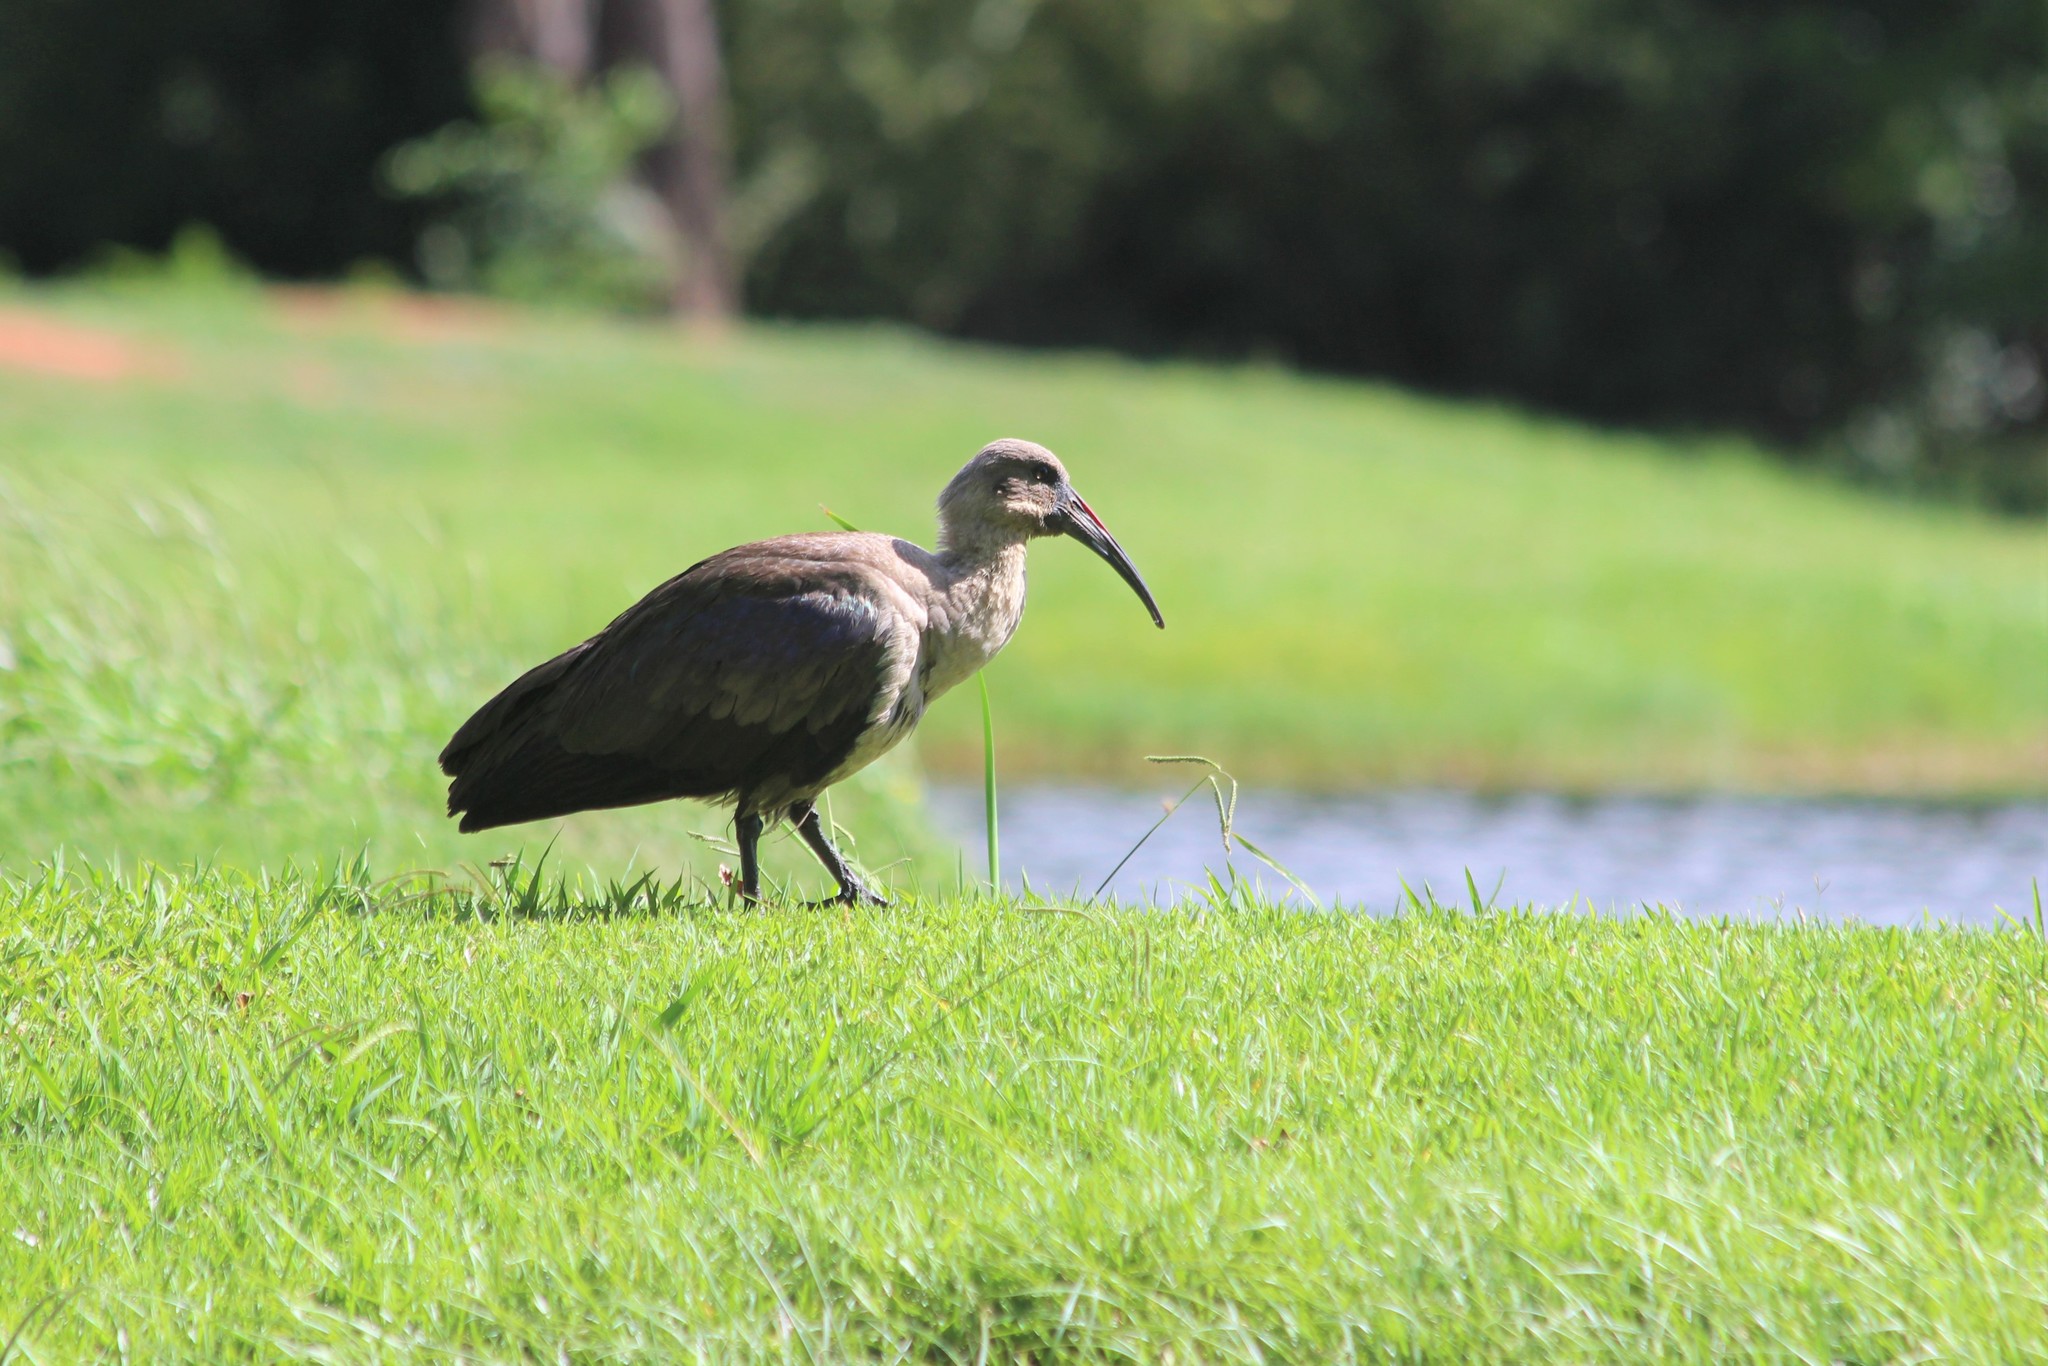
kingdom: Animalia
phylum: Chordata
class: Aves
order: Pelecaniformes
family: Threskiornithidae
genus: Bostrychia
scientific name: Bostrychia hagedash
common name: Hadada ibis
